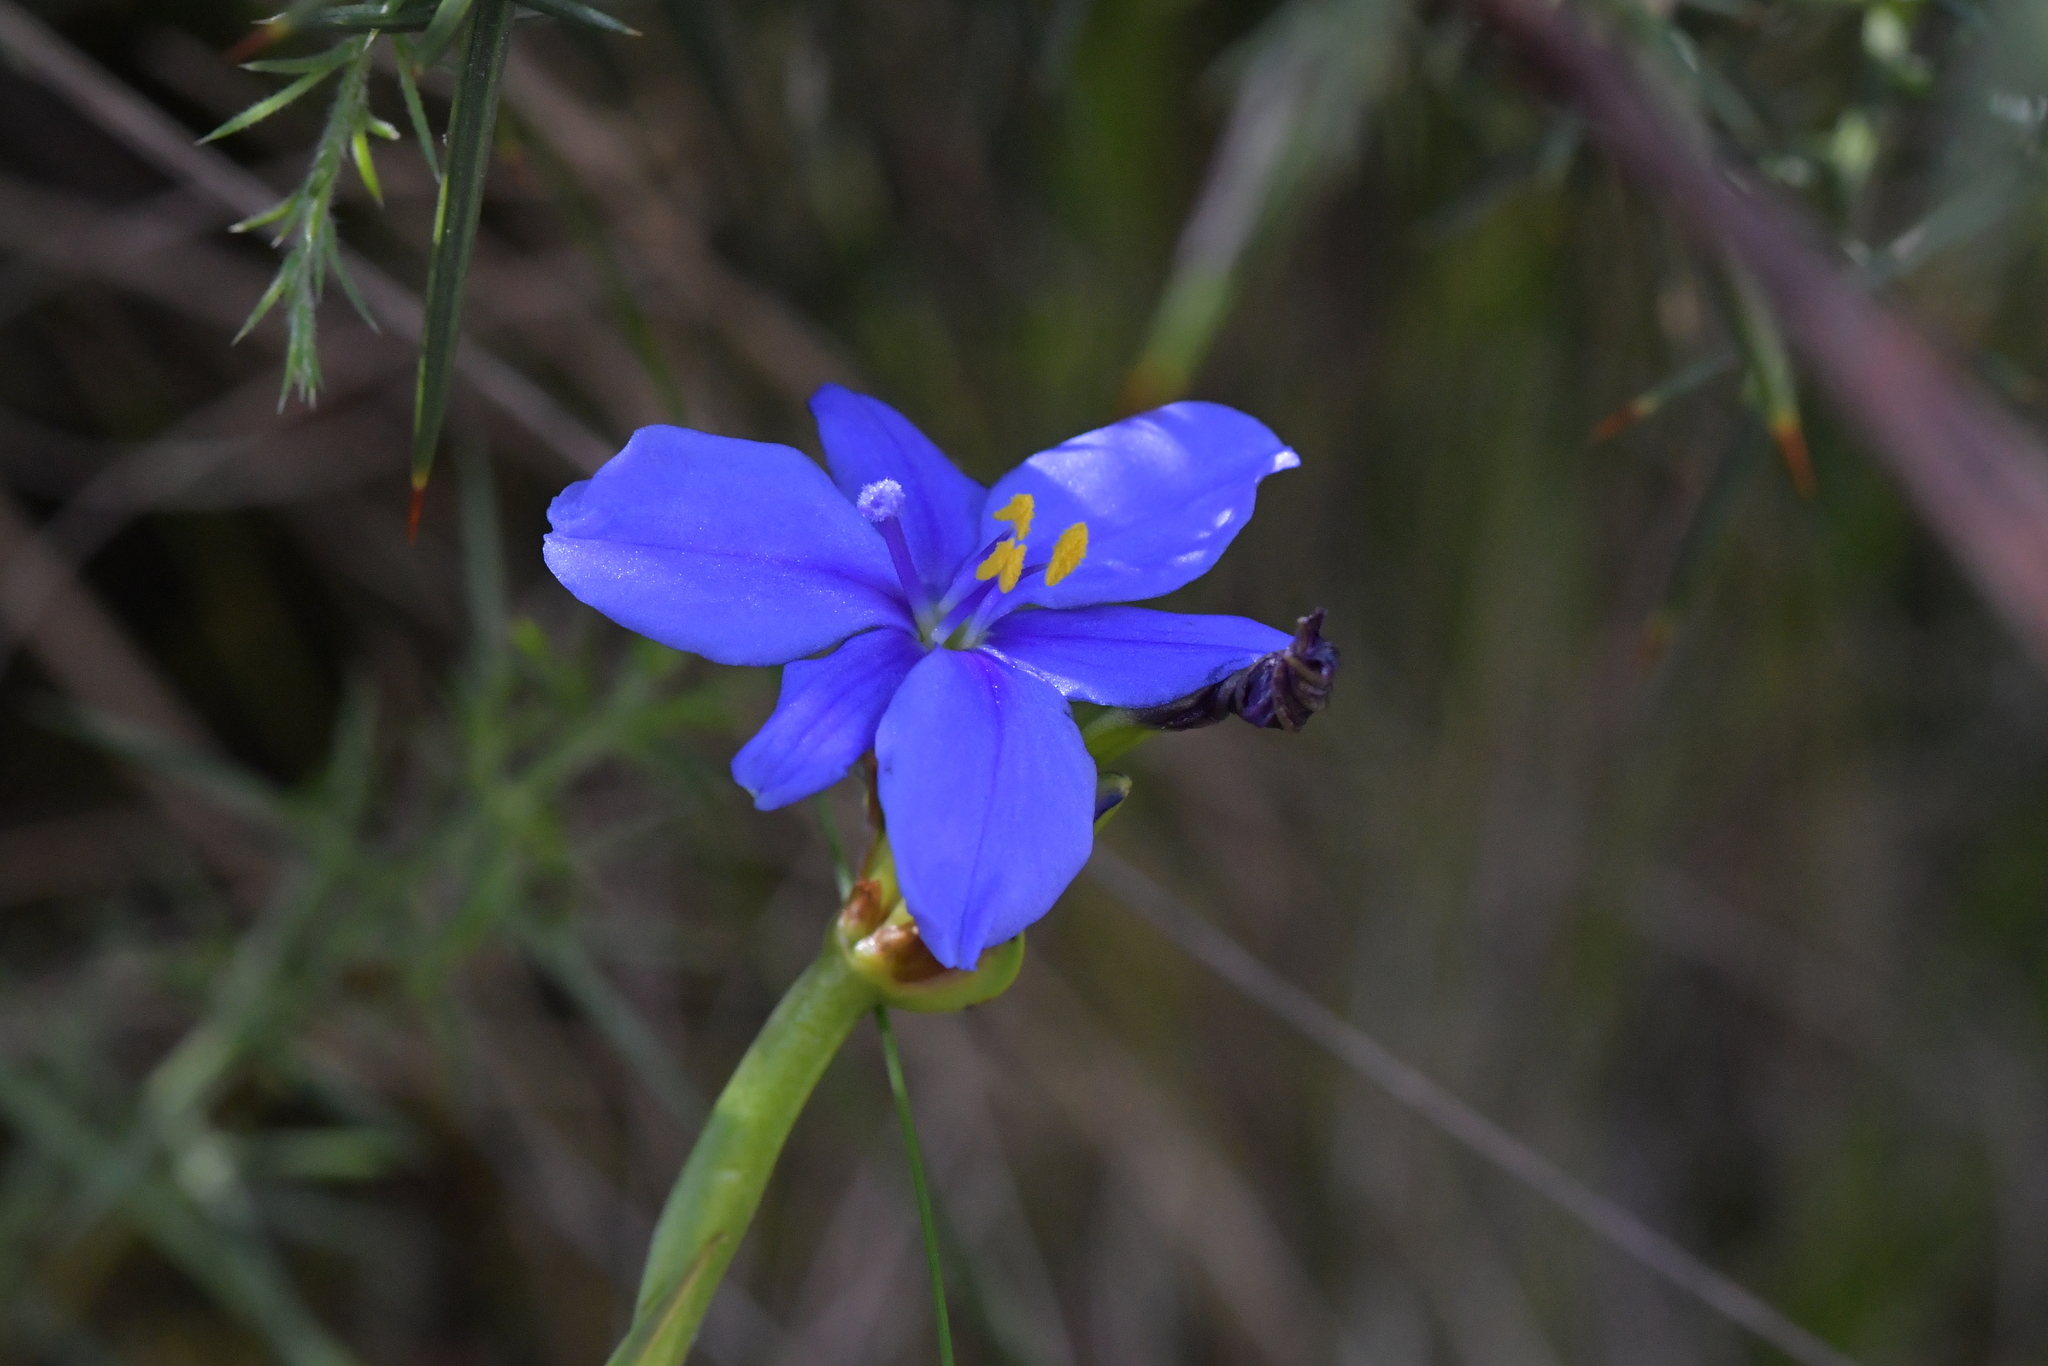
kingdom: Plantae
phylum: Tracheophyta
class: Liliopsida
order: Asparagales
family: Iridaceae
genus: Aristea
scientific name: Aristea ecklonii
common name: Blue corn-lily
